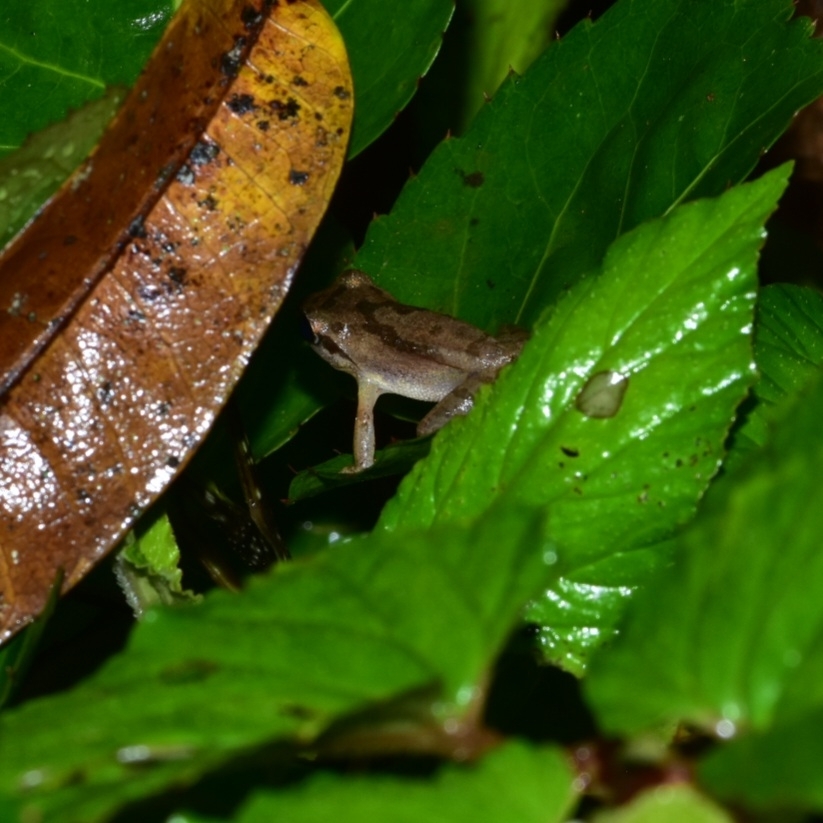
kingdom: Animalia
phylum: Chordata
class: Amphibia
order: Anura
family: Rhacophoridae
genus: Pseudophilautus
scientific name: Pseudophilautus wynaadensis
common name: Dark-eared bush frog
